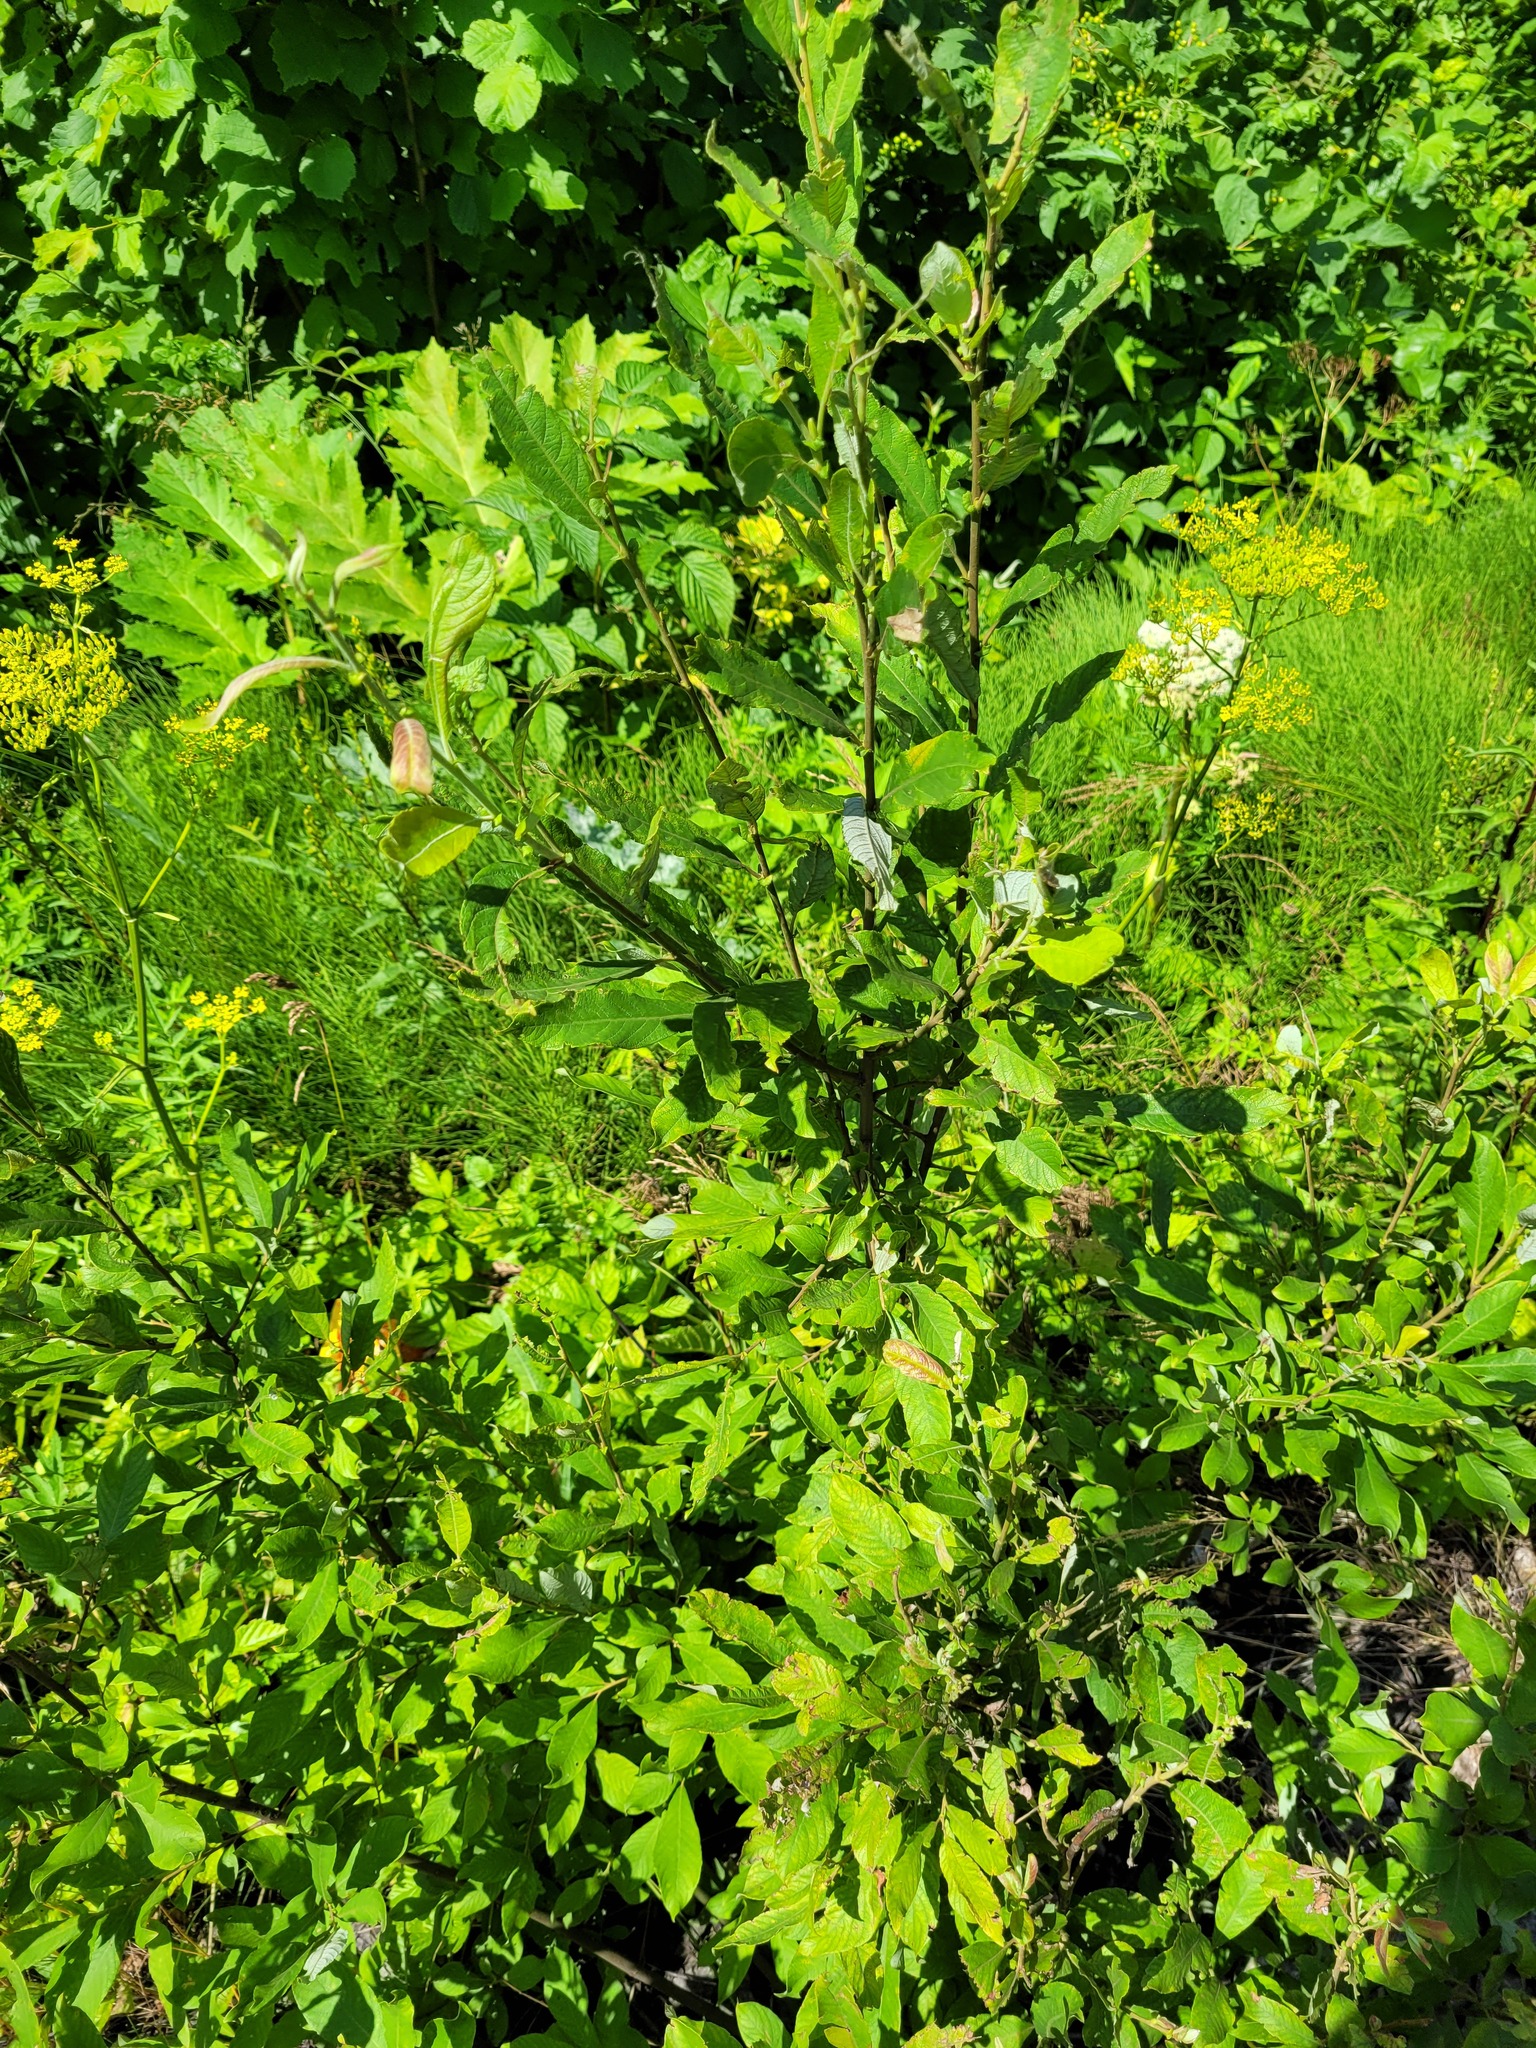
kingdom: Plantae
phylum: Tracheophyta
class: Magnoliopsida
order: Malpighiales
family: Salicaceae
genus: Salix
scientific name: Salix cinerea
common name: Common sallow
